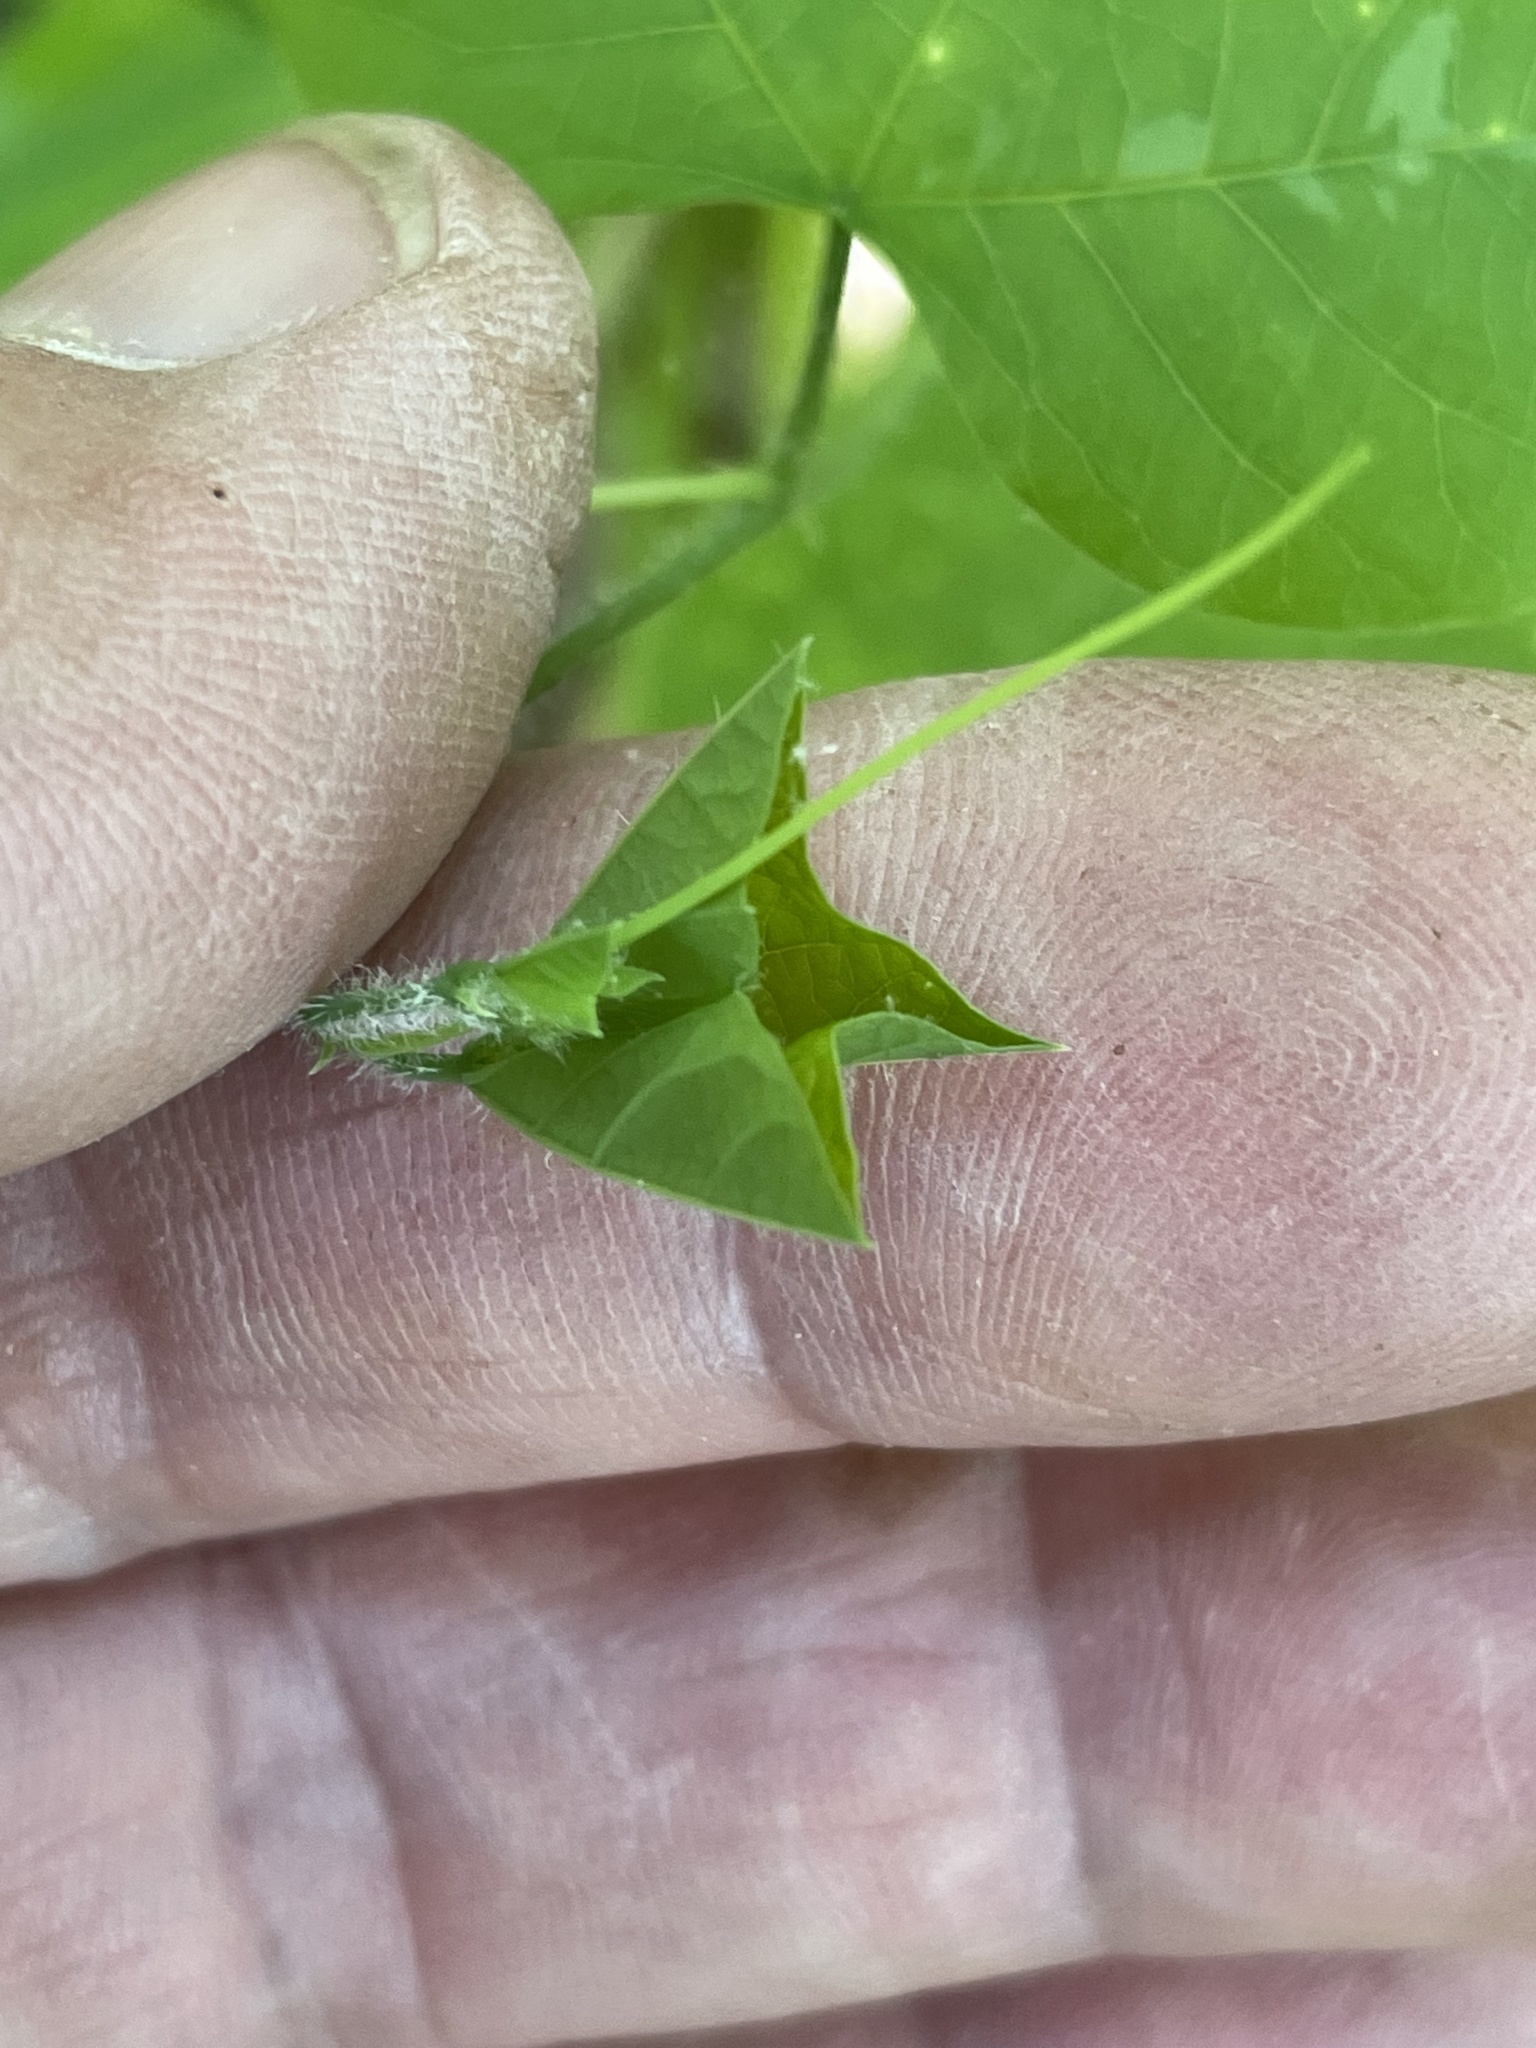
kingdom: Plantae
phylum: Tracheophyta
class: Magnoliopsida
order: Malpighiales
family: Passifloraceae
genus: Passiflora
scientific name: Passiflora lutea
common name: Yellow passionflower
